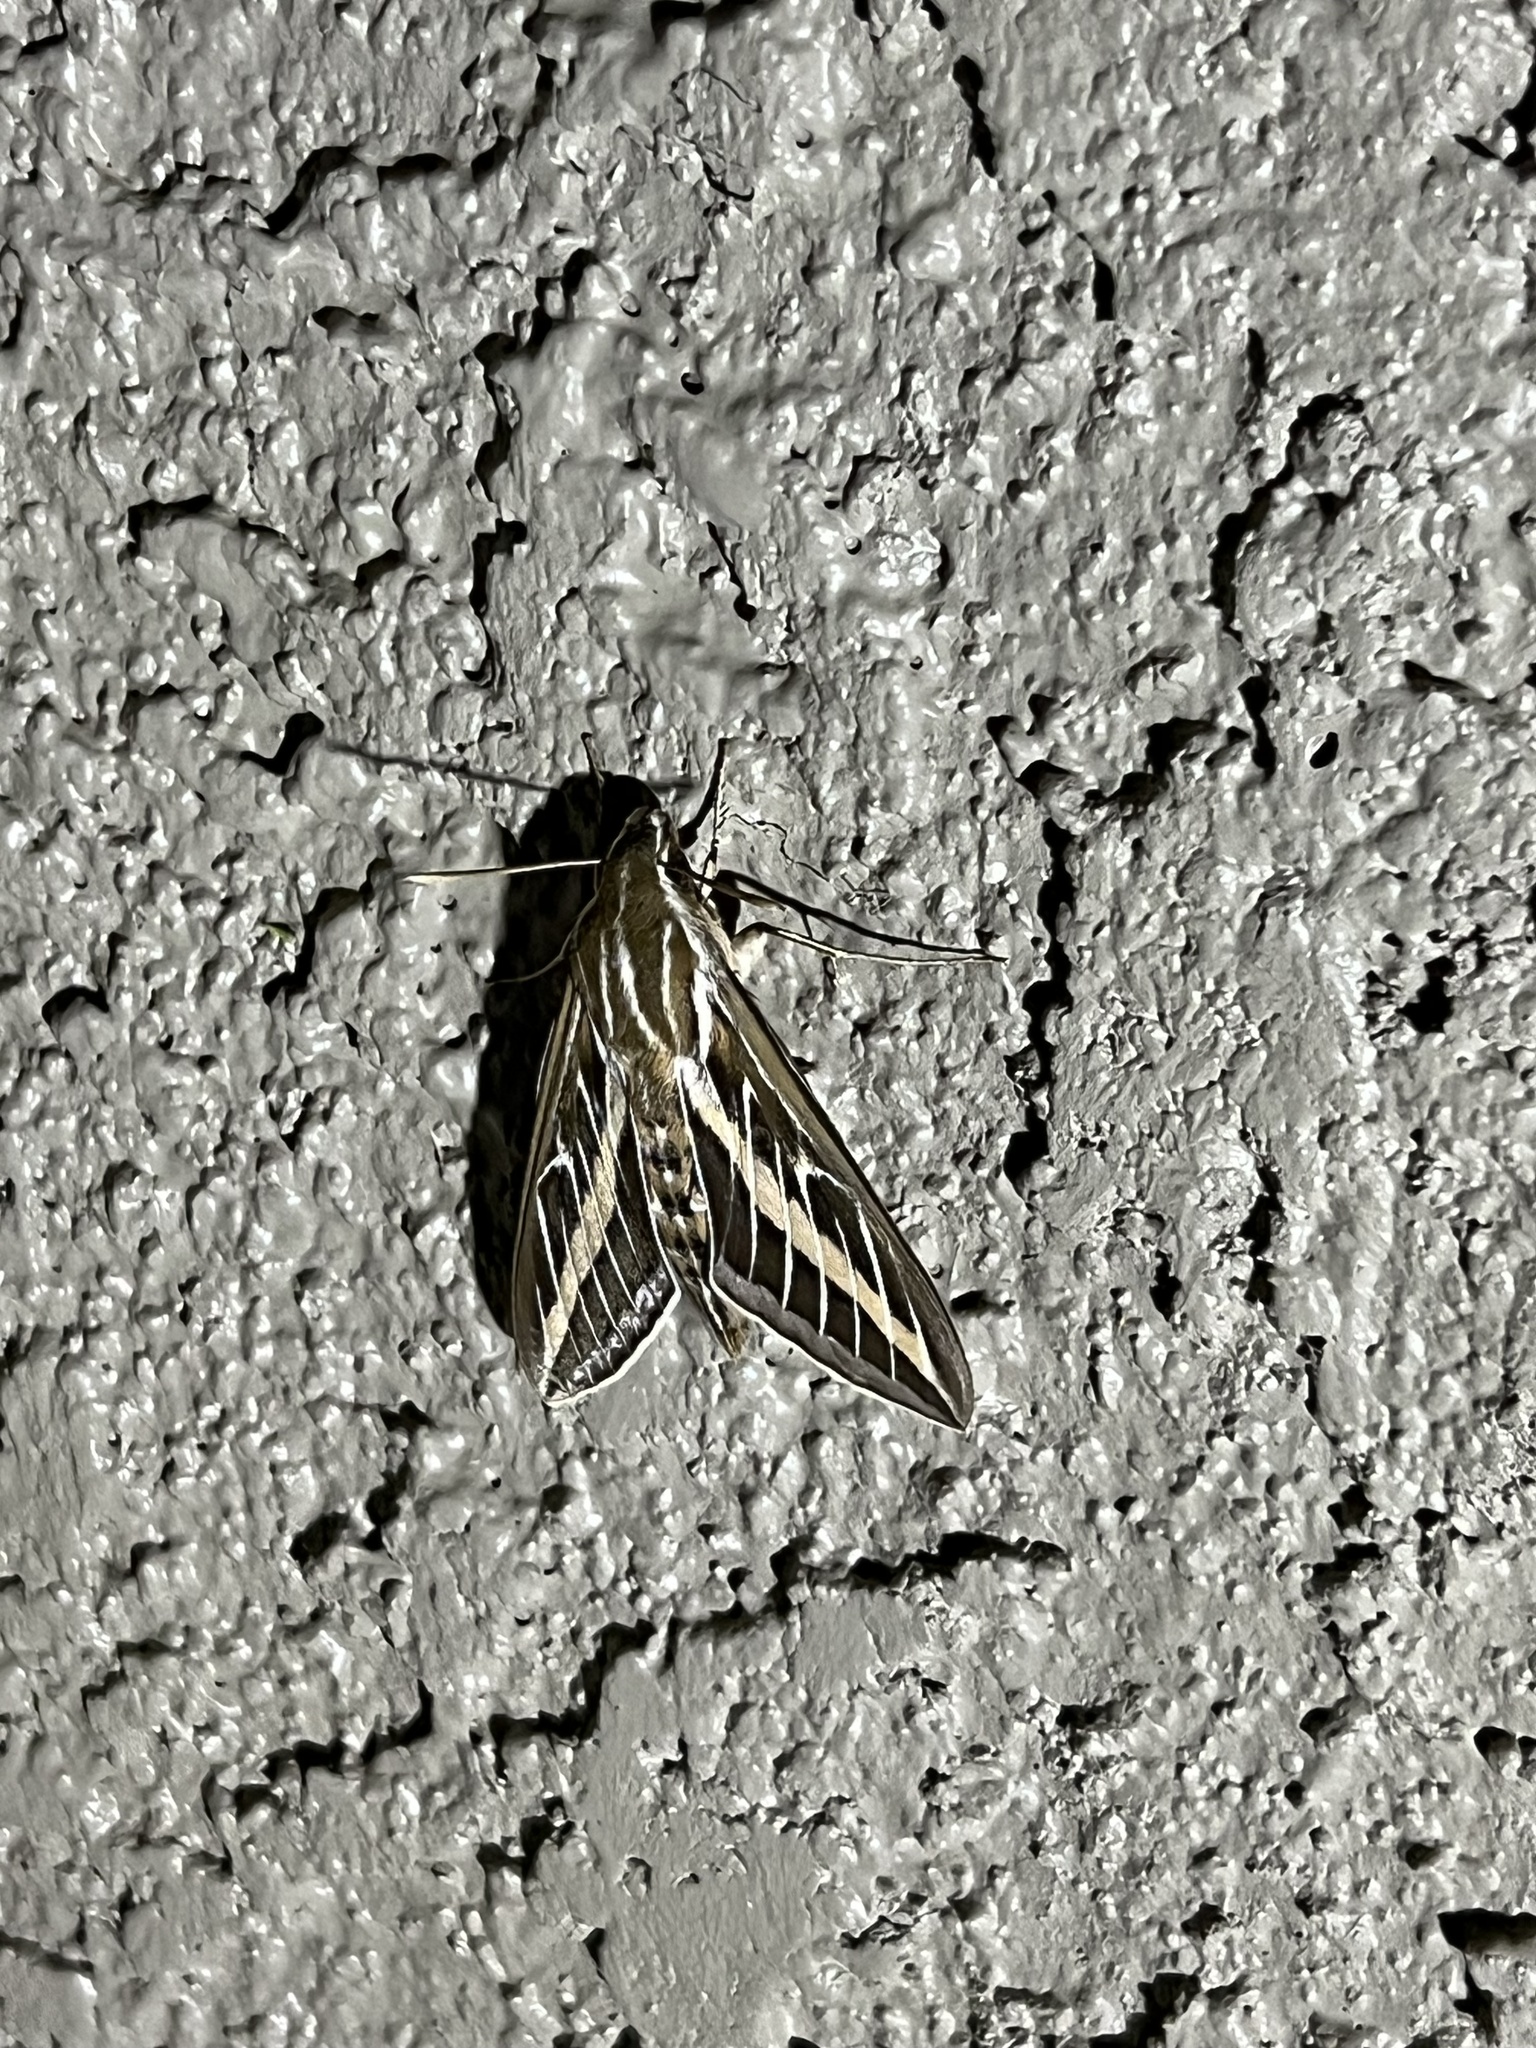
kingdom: Animalia
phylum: Arthropoda
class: Insecta
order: Lepidoptera
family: Sphingidae
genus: Hyles
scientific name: Hyles lineata
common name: White-lined sphinx
